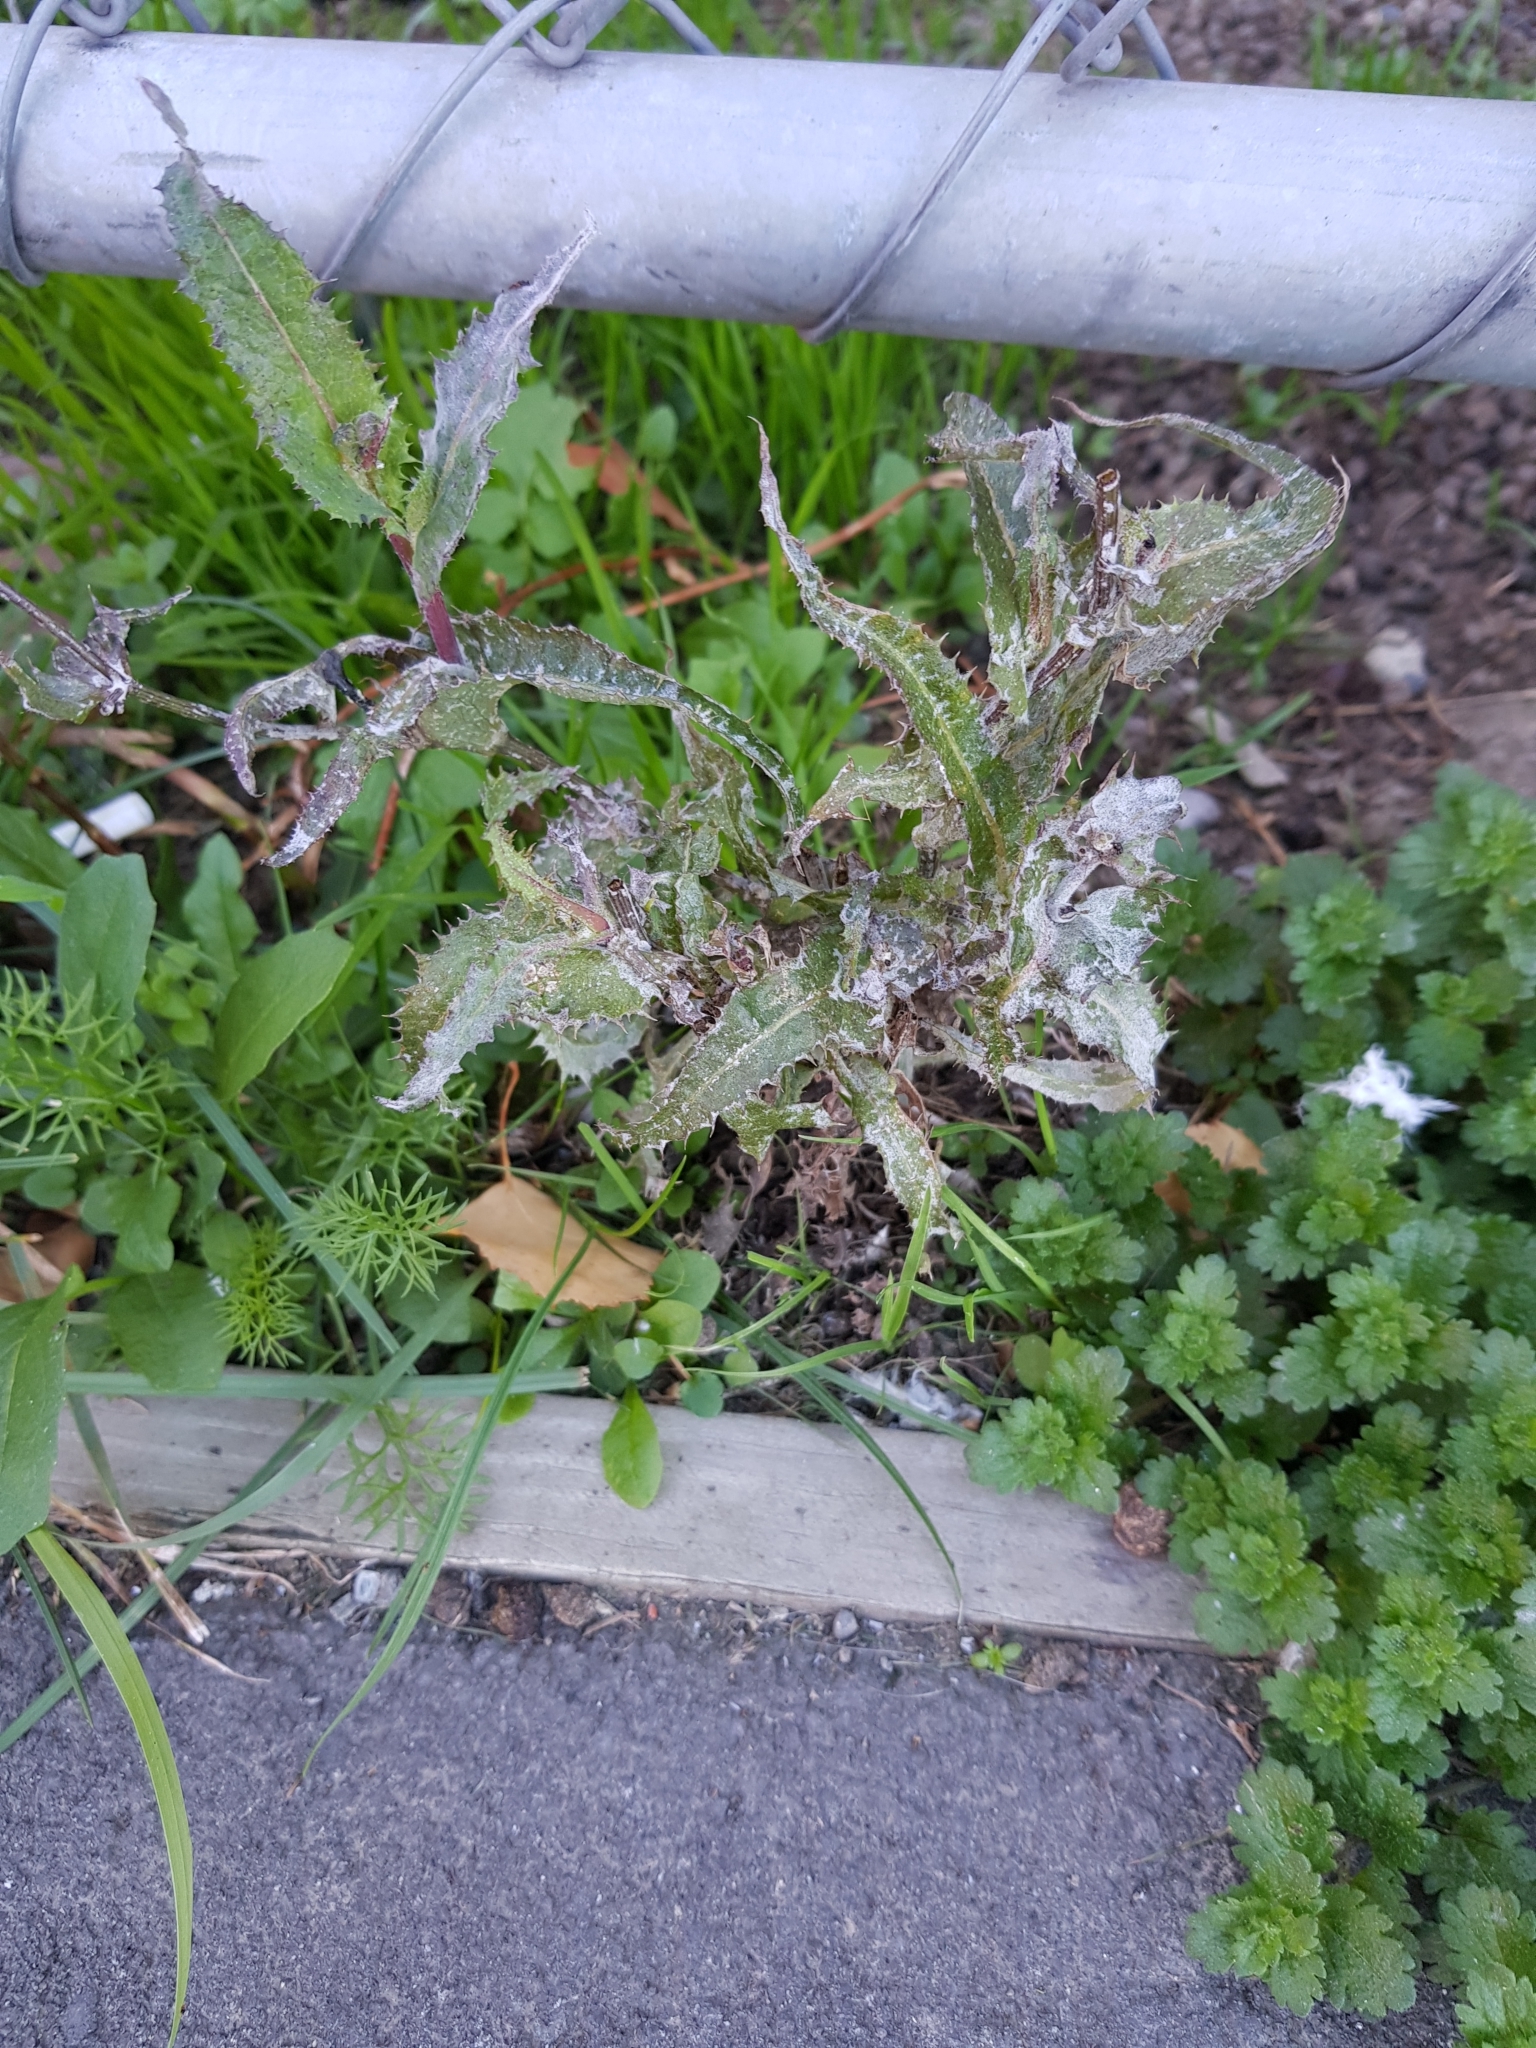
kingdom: Plantae
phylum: Tracheophyta
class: Magnoliopsida
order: Asterales
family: Asteraceae
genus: Sonchus
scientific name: Sonchus asper
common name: Prickly sow-thistle
